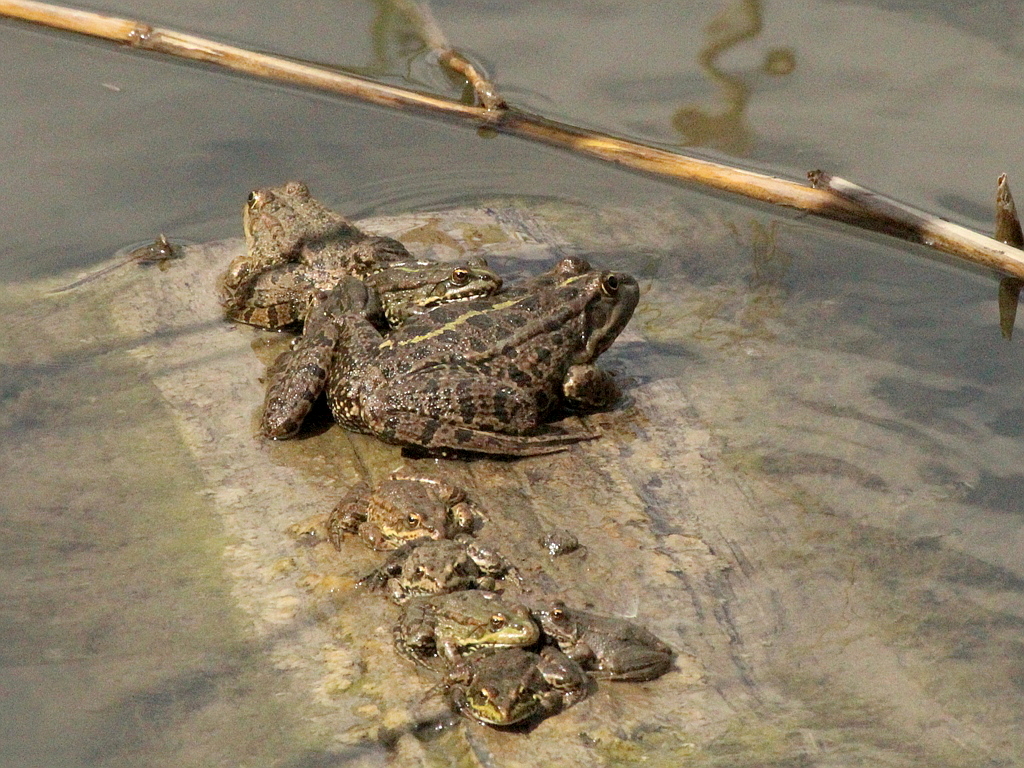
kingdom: Animalia
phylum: Chordata
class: Amphibia
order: Anura
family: Ranidae
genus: Pelophylax
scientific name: Pelophylax ridibundus
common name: Marsh frog
